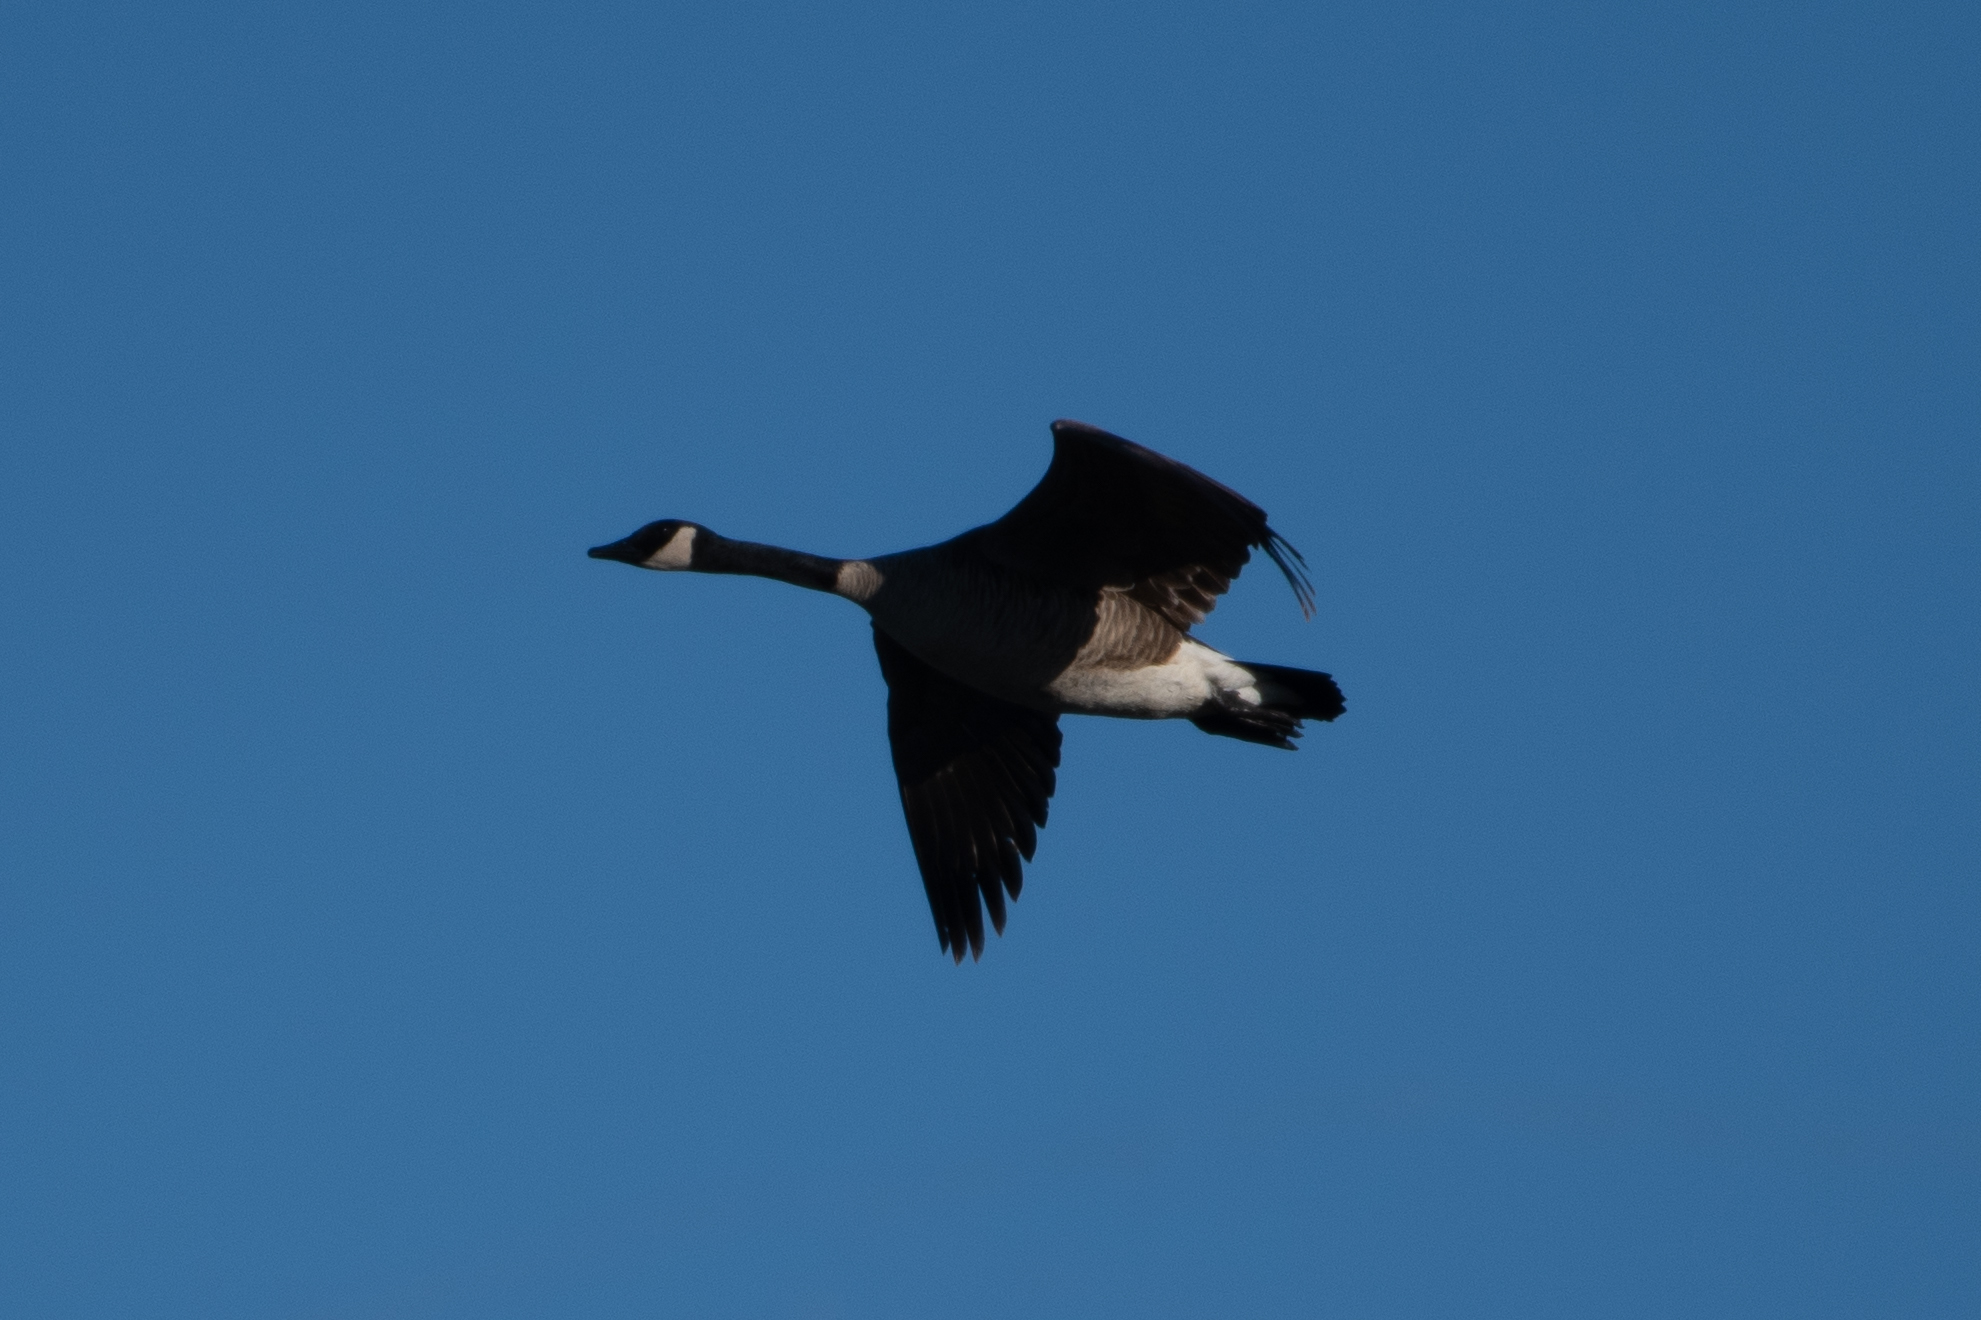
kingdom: Animalia
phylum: Chordata
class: Aves
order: Anseriformes
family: Anatidae
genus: Branta
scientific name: Branta canadensis
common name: Canada goose
